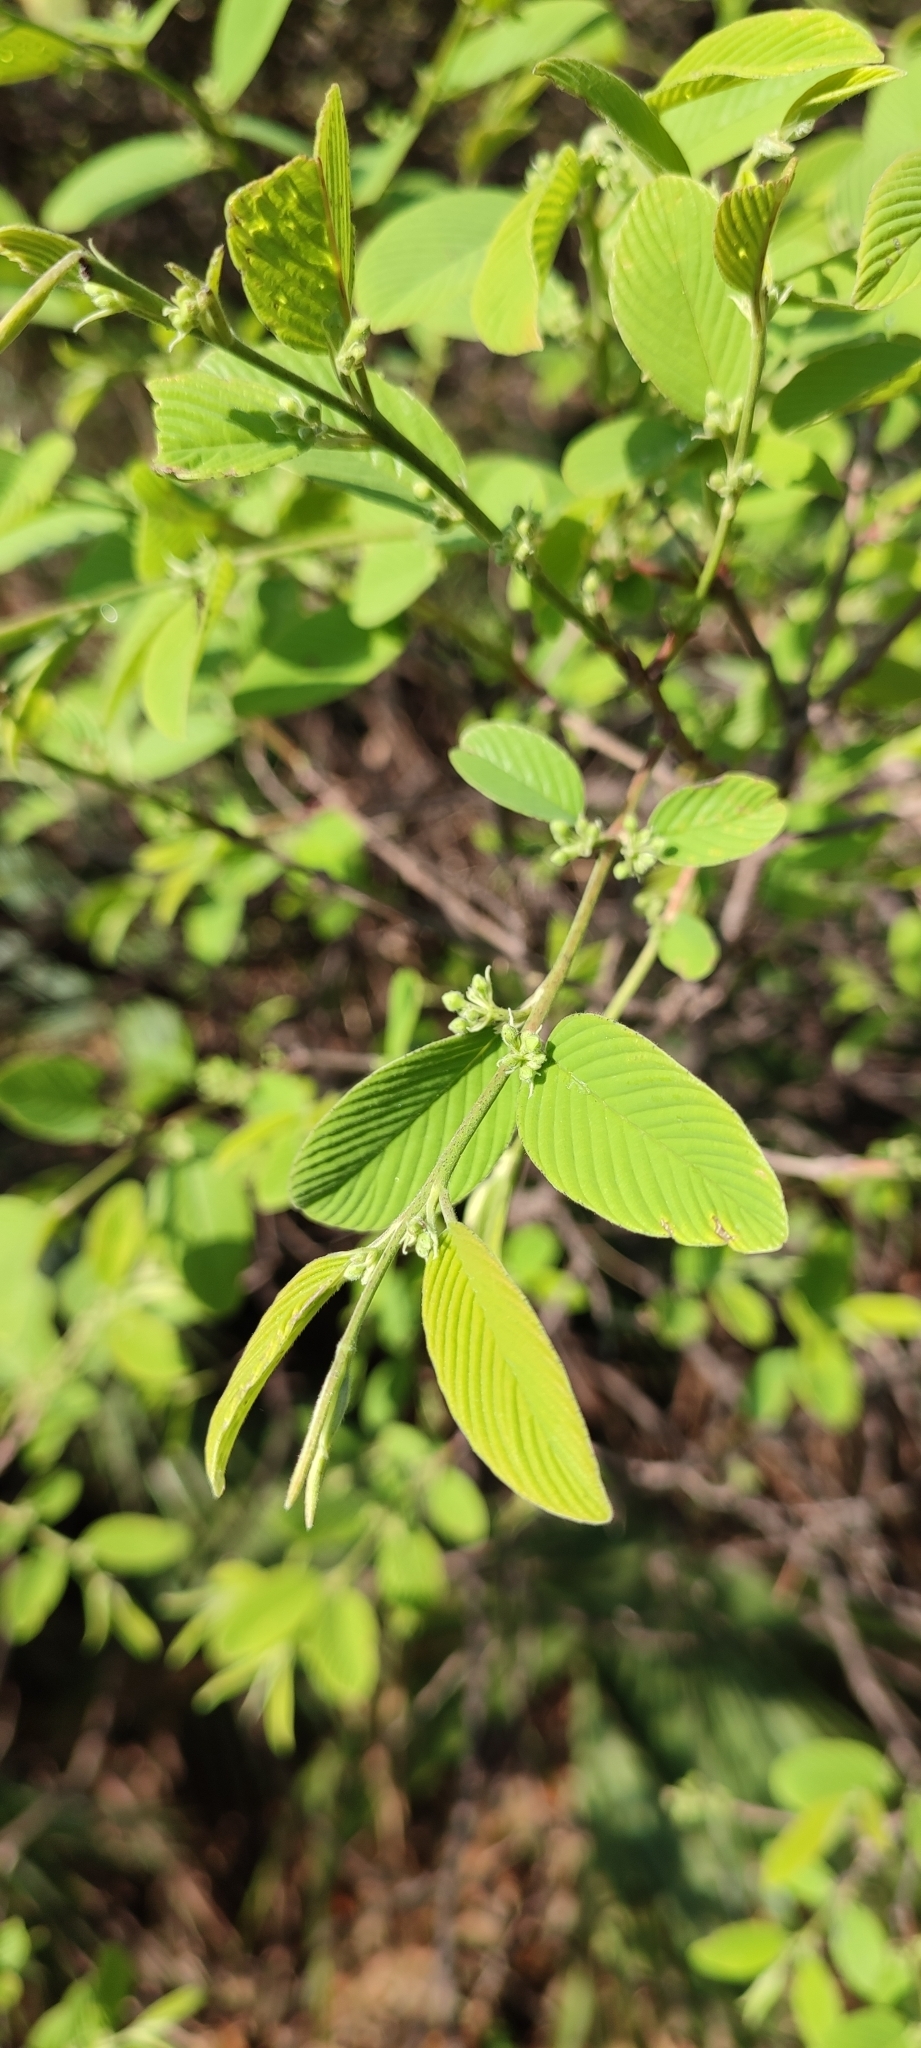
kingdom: Plantae
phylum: Tracheophyta
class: Magnoliopsida
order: Rosales
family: Rhamnaceae
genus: Karwinskia
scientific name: Karwinskia humboldtiana
